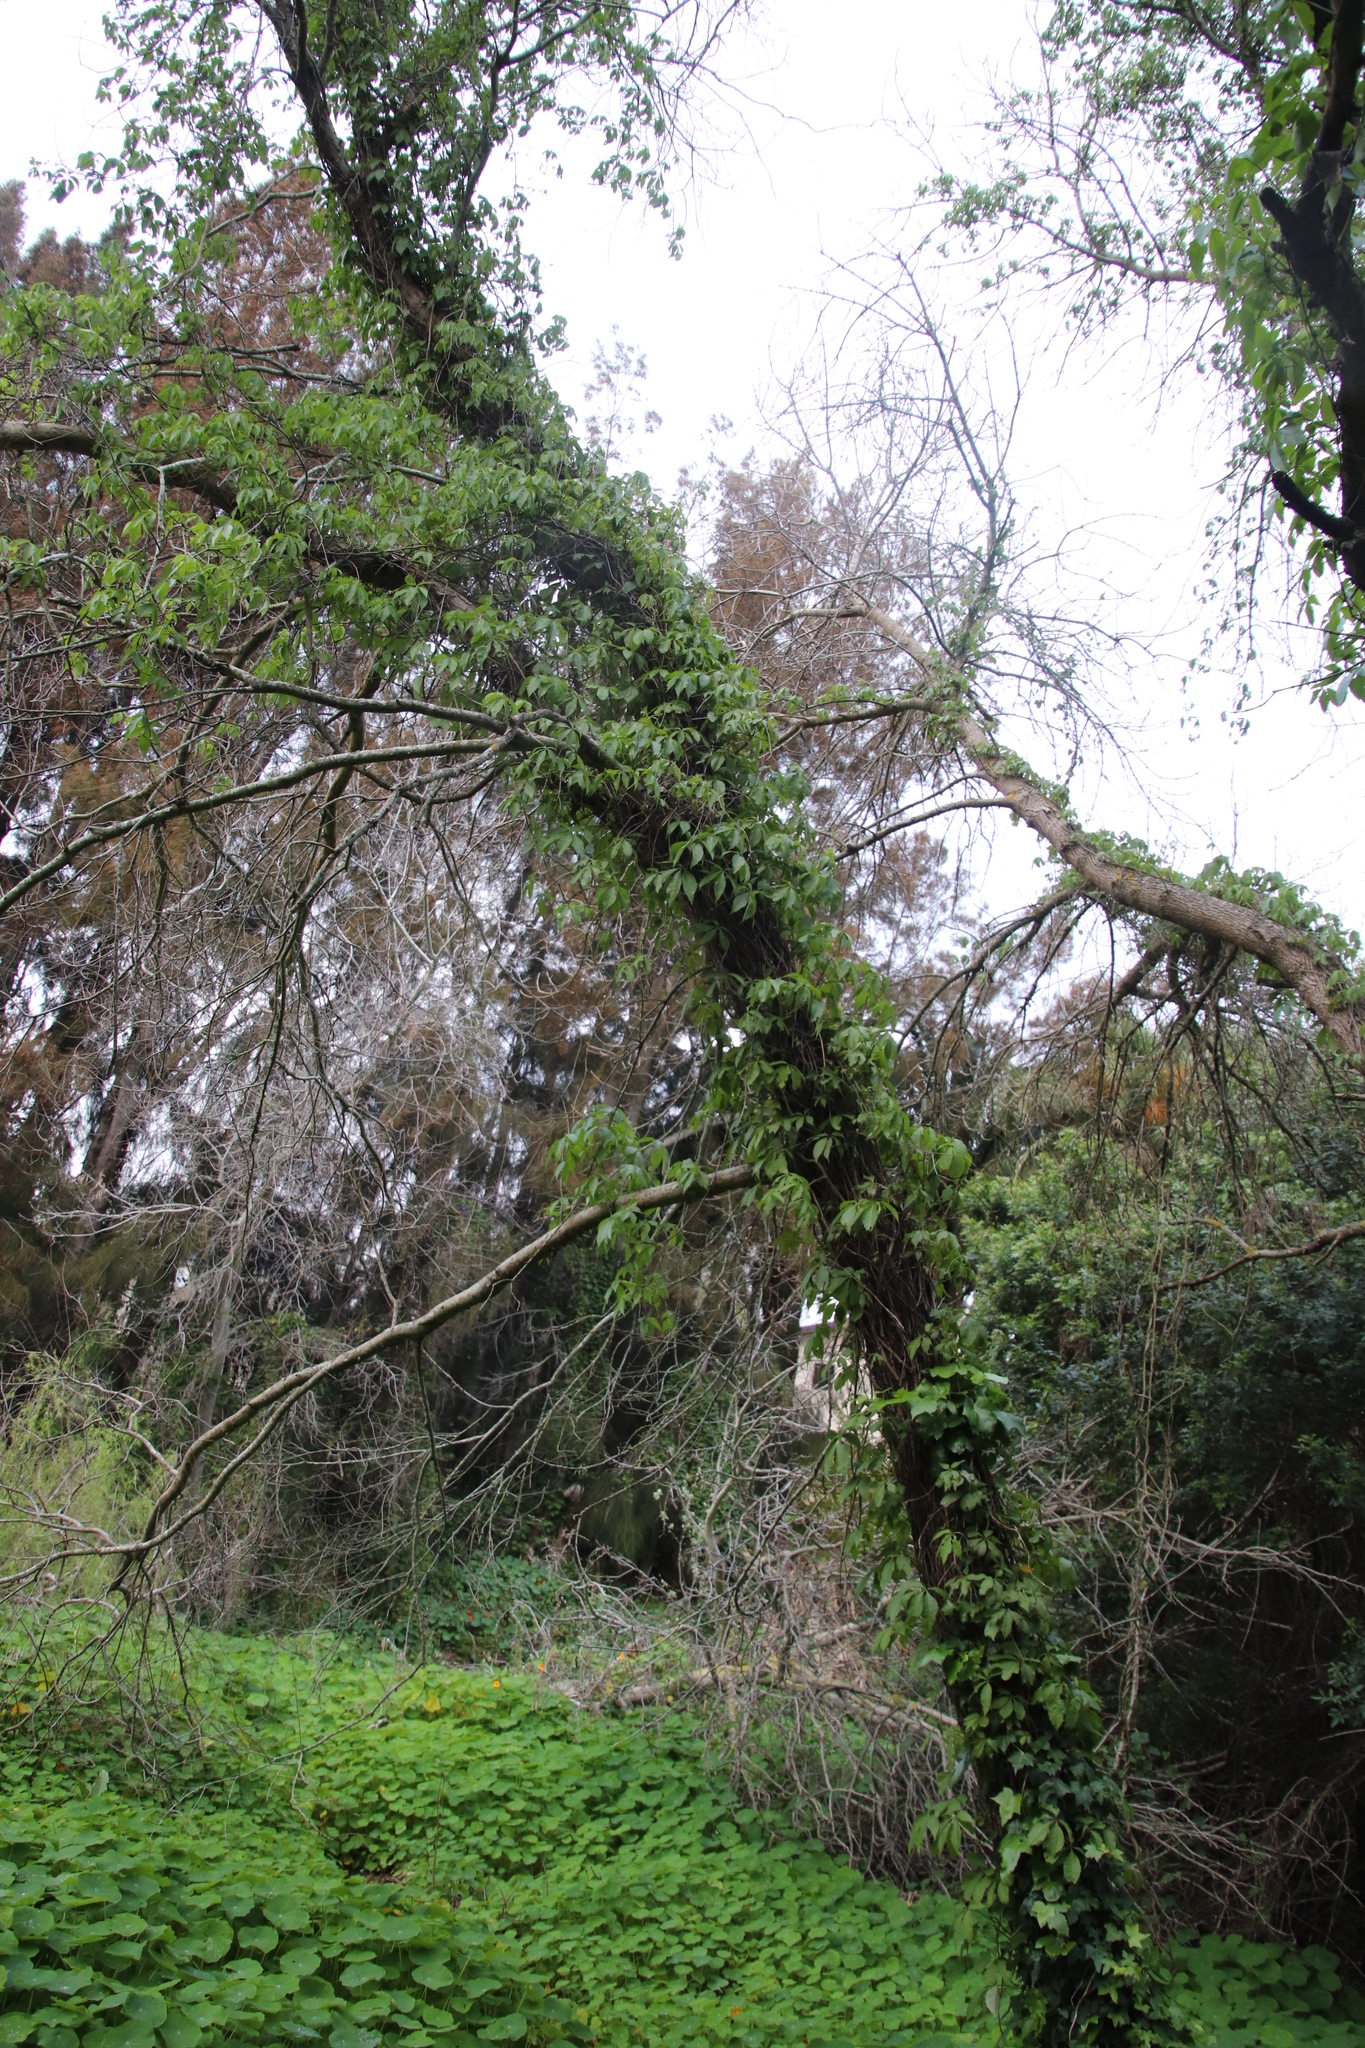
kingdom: Plantae
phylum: Tracheophyta
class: Magnoliopsida
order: Vitales
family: Vitaceae
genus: Parthenocissus
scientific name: Parthenocissus quinquefolia
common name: Virginia-creeper
